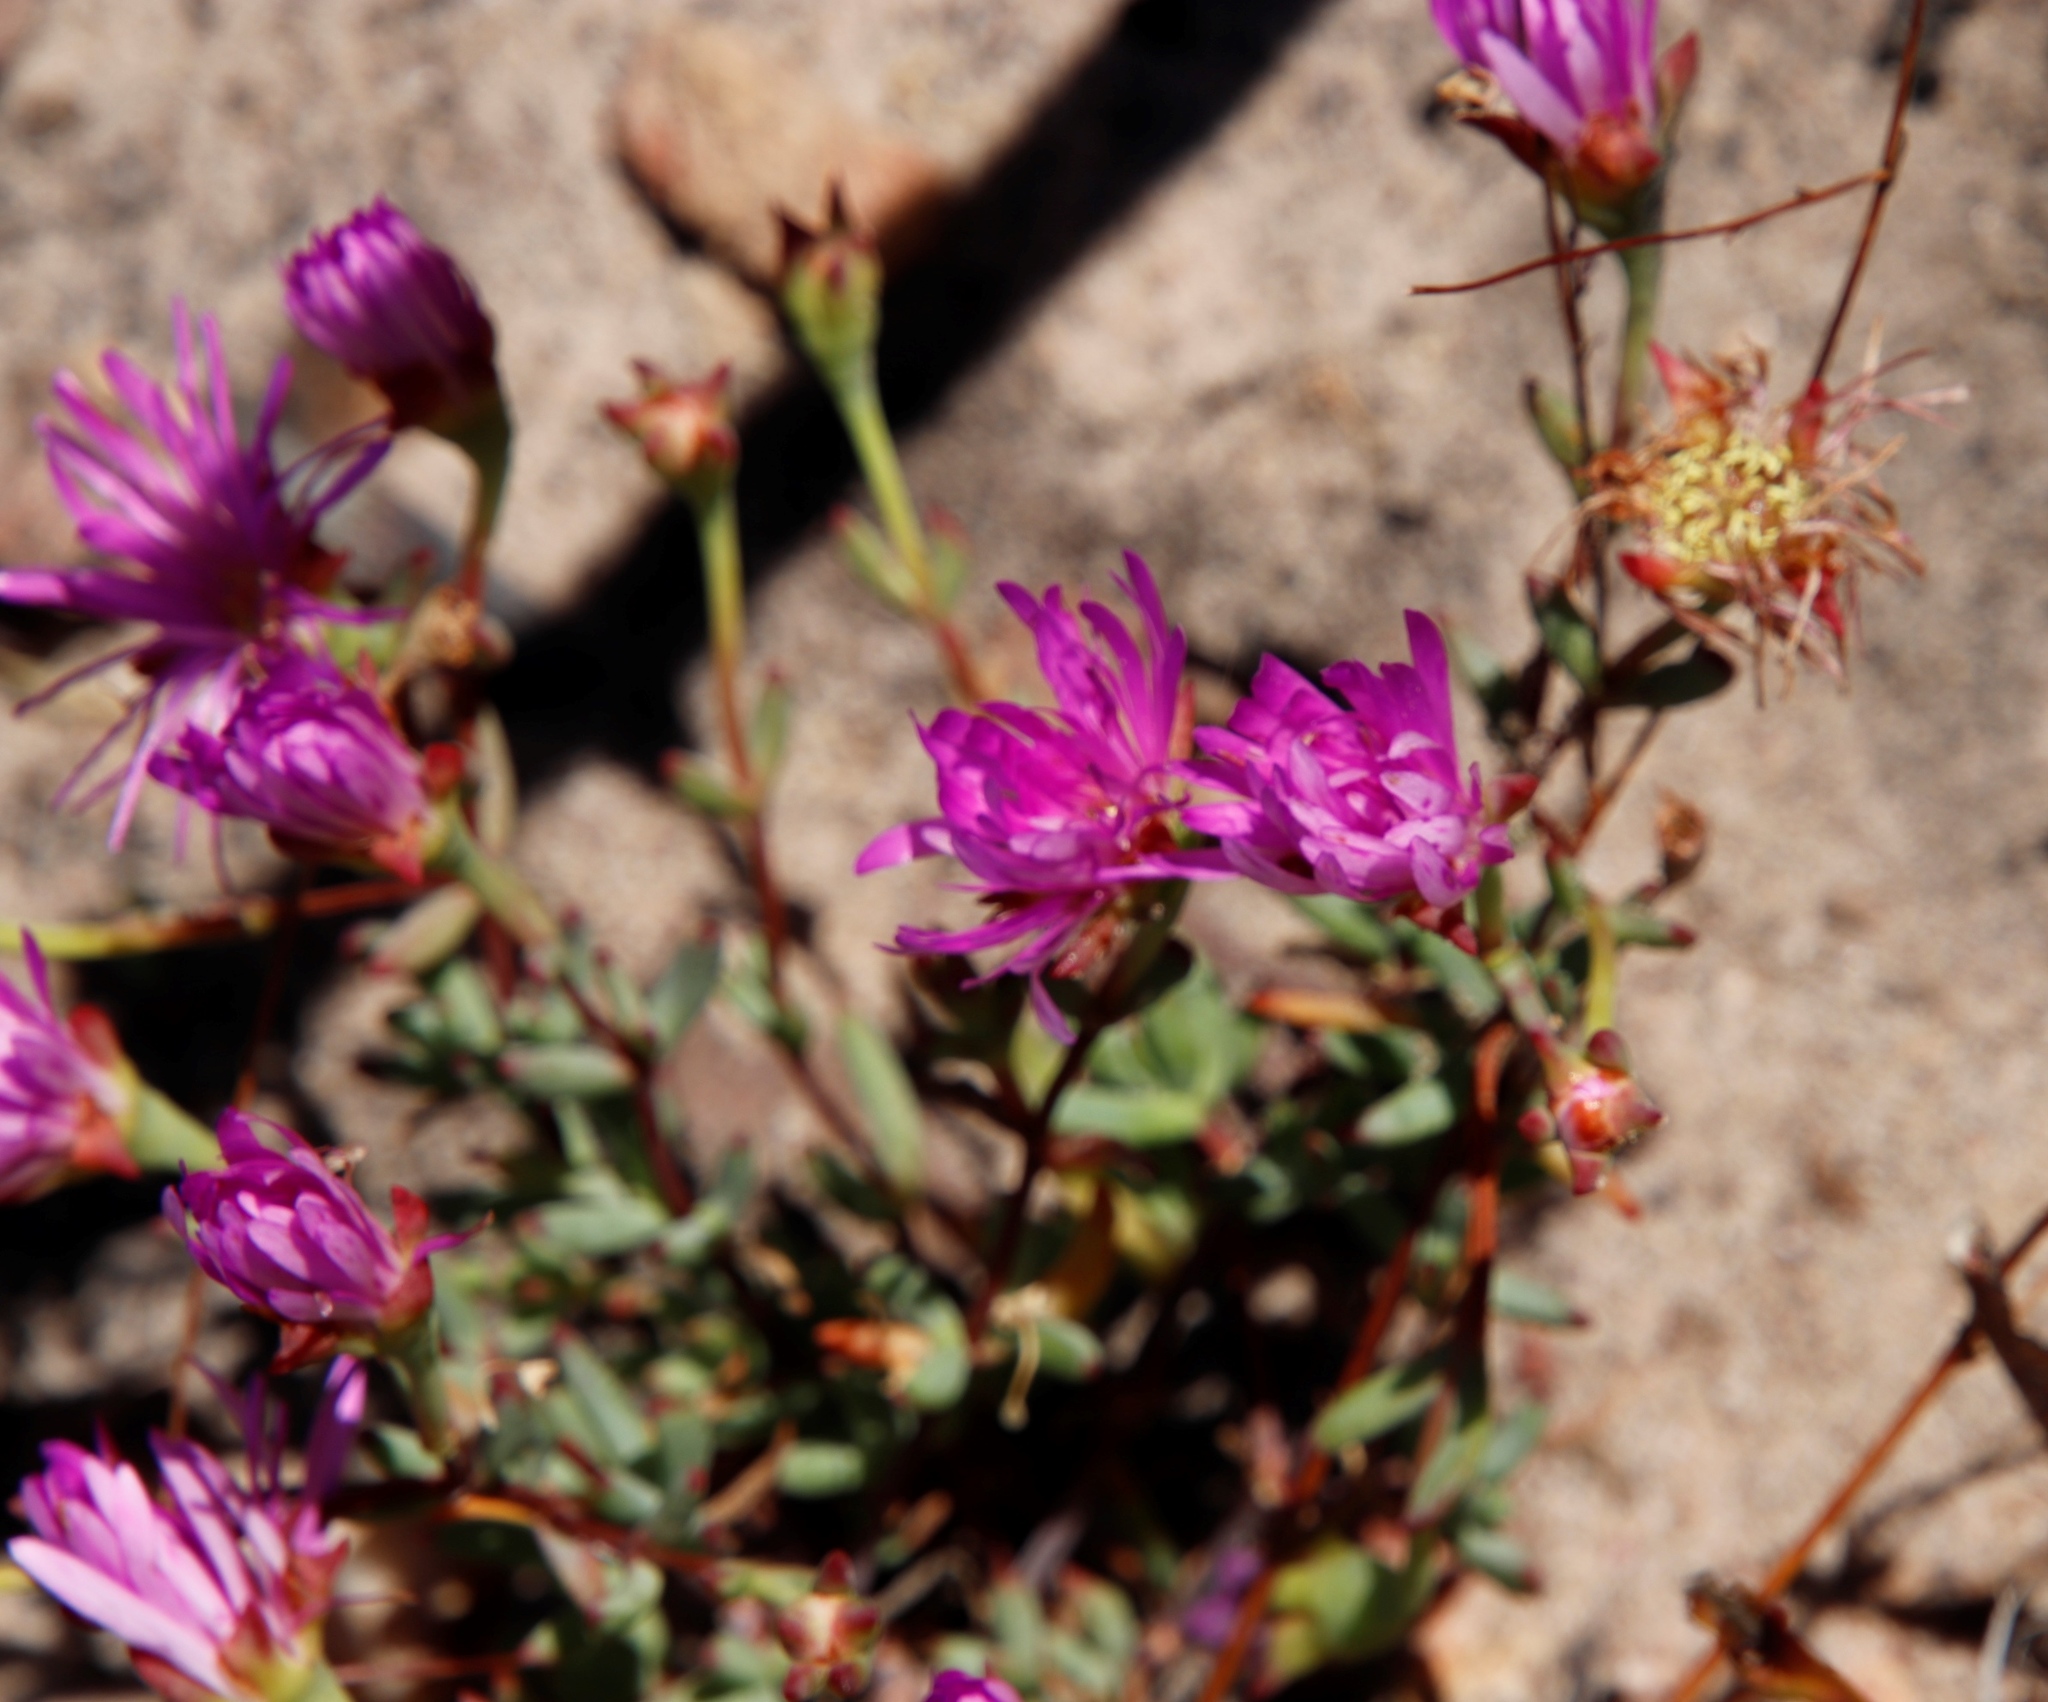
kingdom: Plantae
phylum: Tracheophyta
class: Magnoliopsida
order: Caryophyllales
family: Aizoaceae
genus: Lampranthus
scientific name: Lampranthus falcatus
